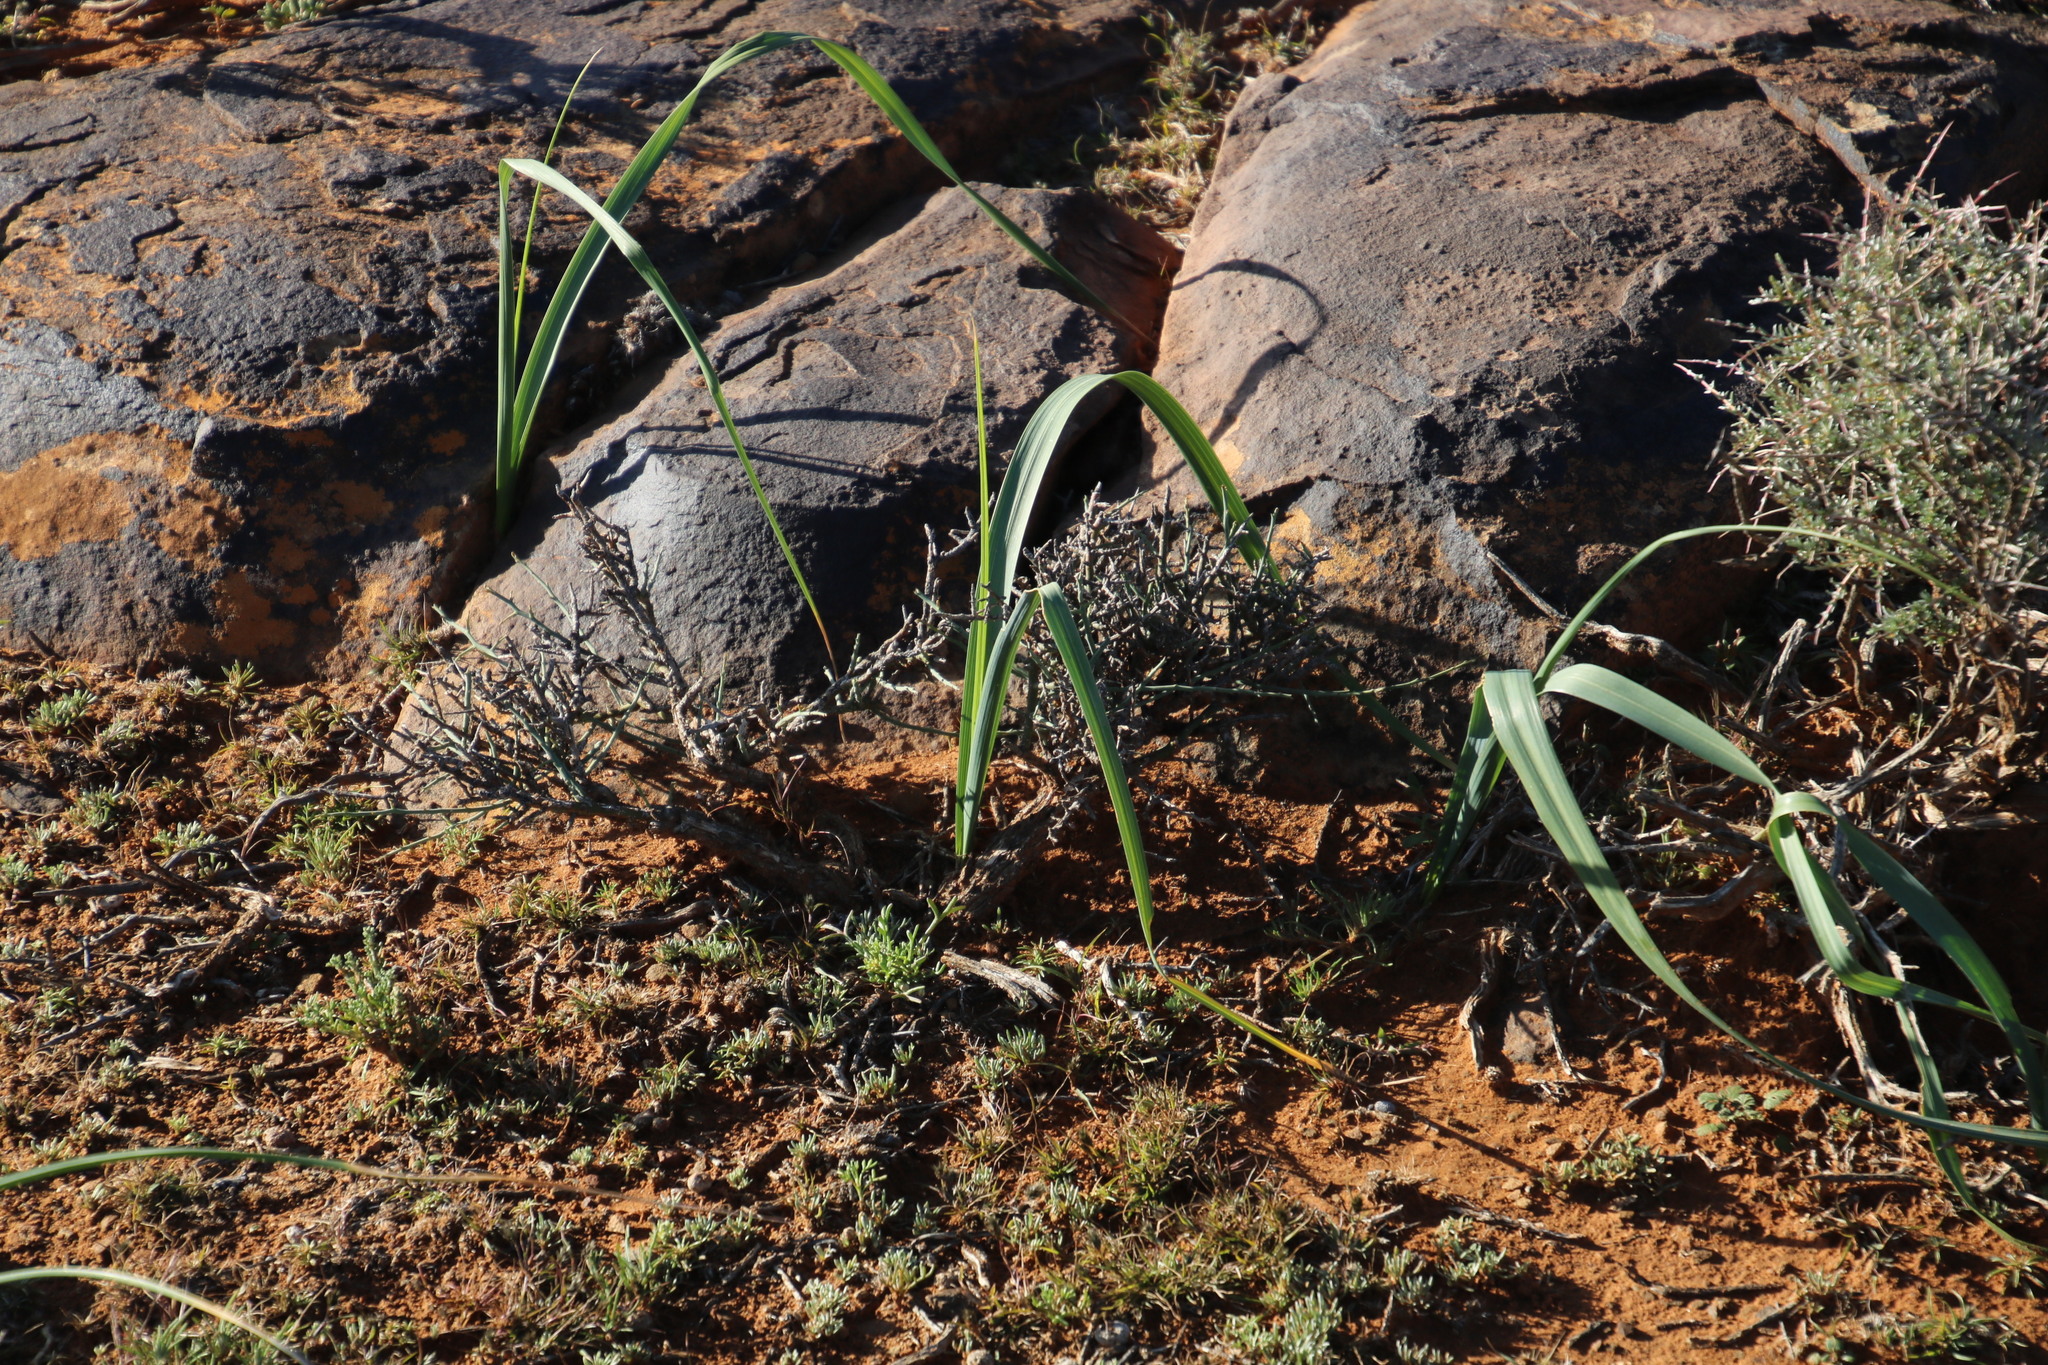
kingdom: Plantae
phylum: Tracheophyta
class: Liliopsida
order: Asparagales
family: Iridaceae
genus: Moraea
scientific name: Moraea polystachya
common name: Blue-tulip
